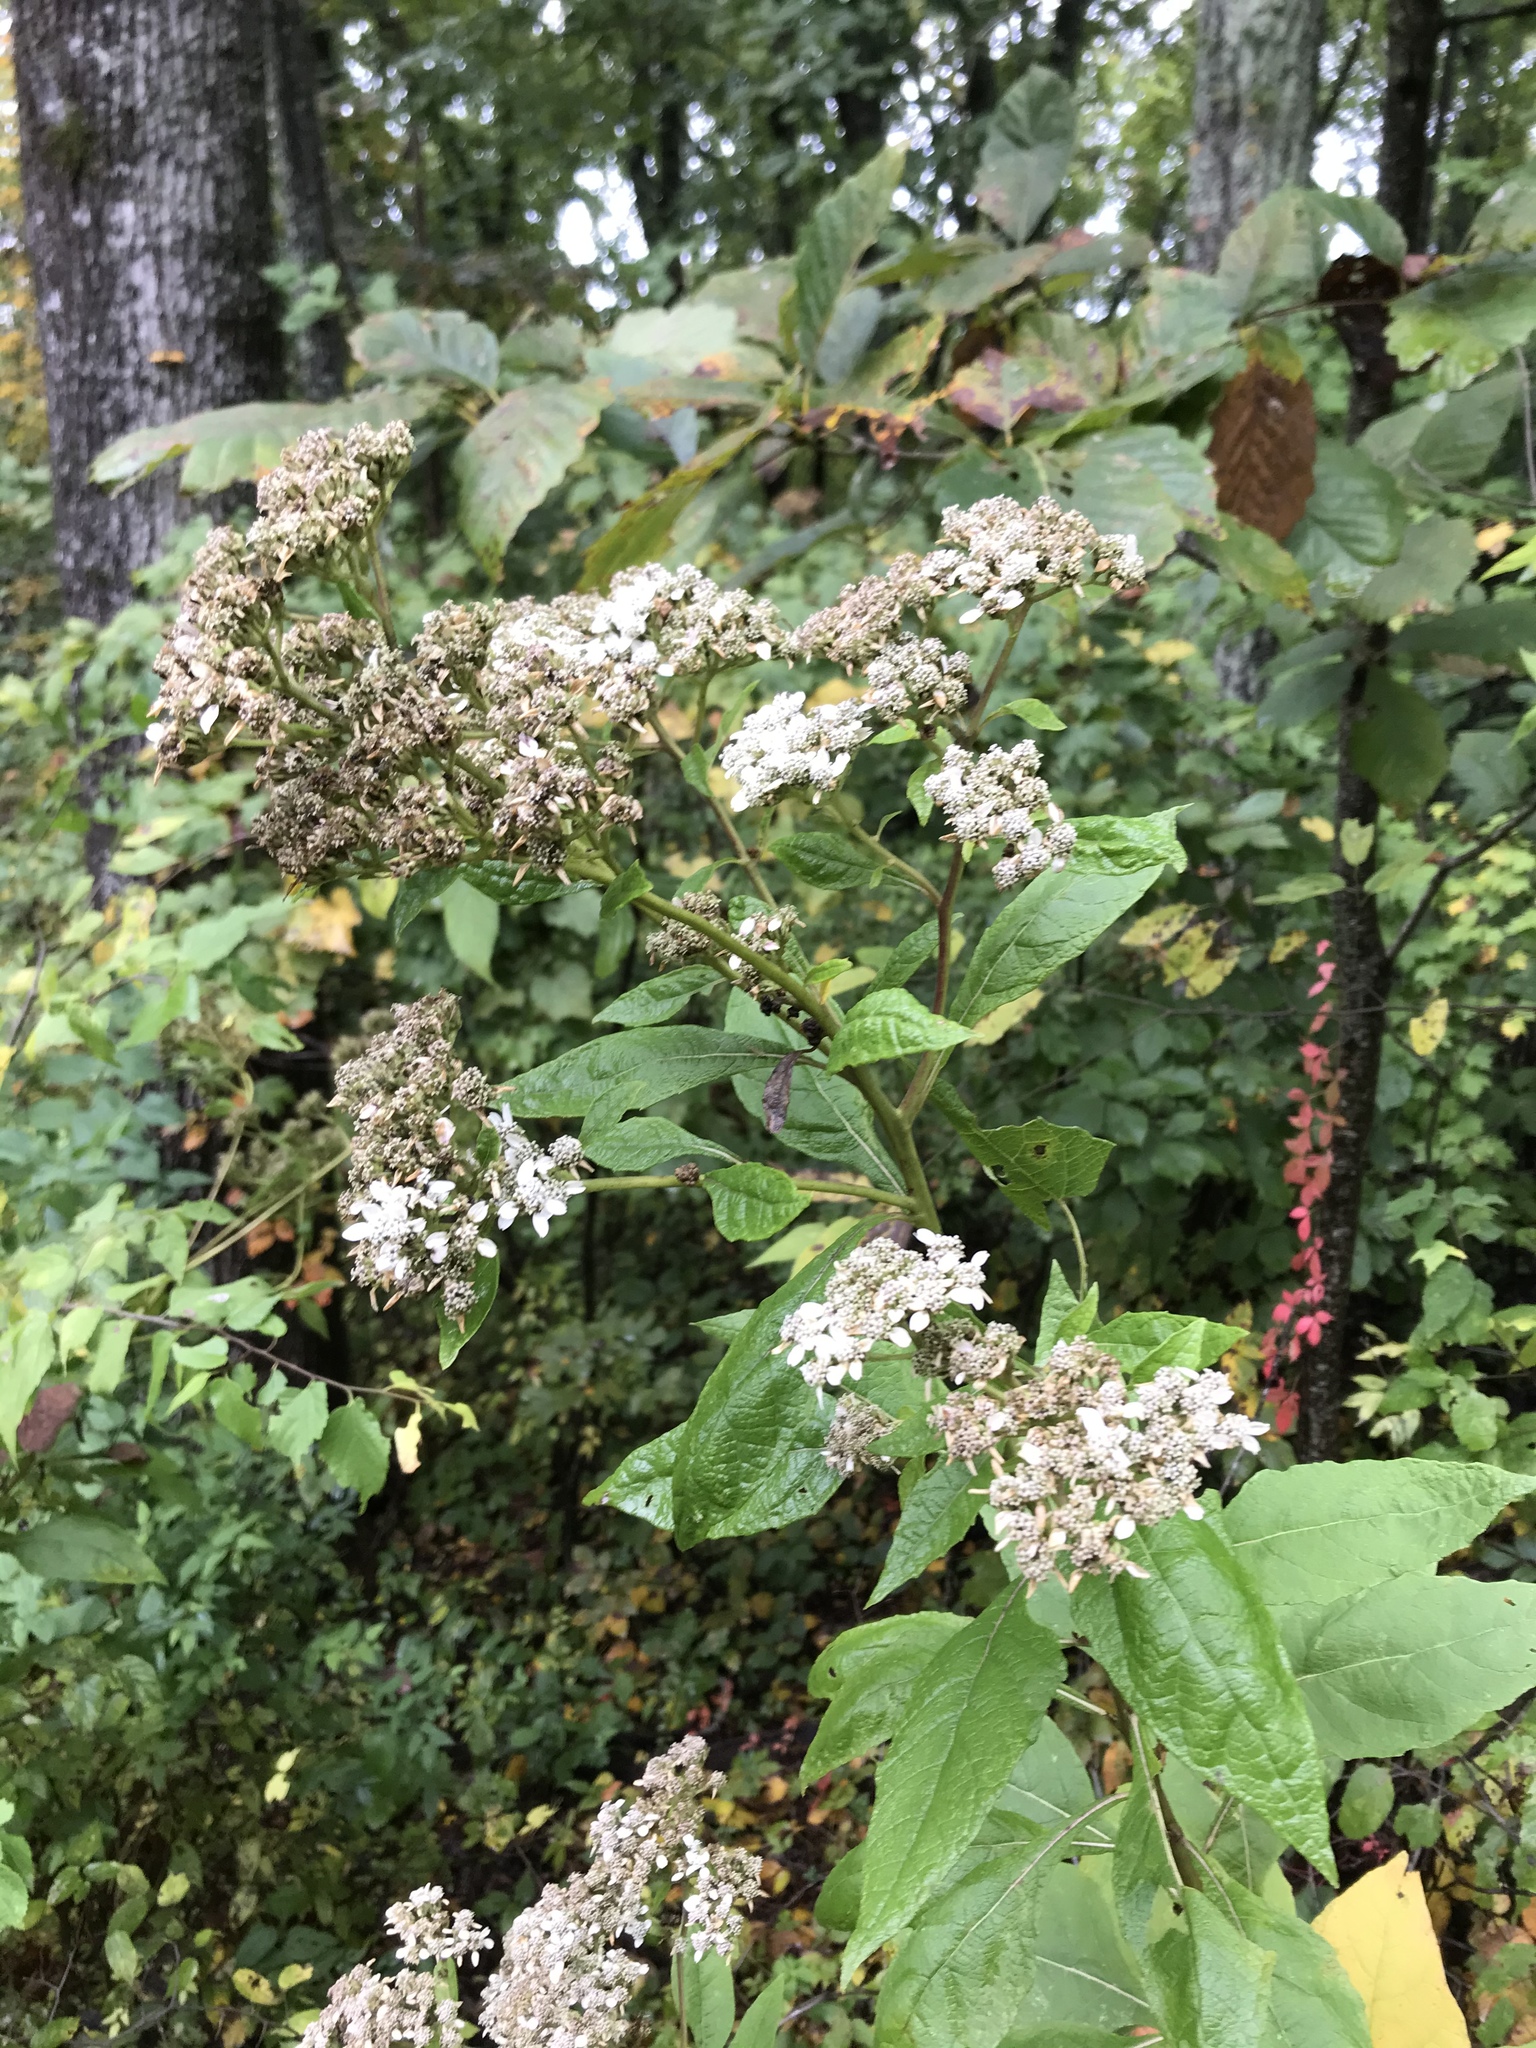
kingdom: Plantae
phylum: Tracheophyta
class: Magnoliopsida
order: Asterales
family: Asteraceae
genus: Verbesina
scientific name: Verbesina virginica
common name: Frostweed
